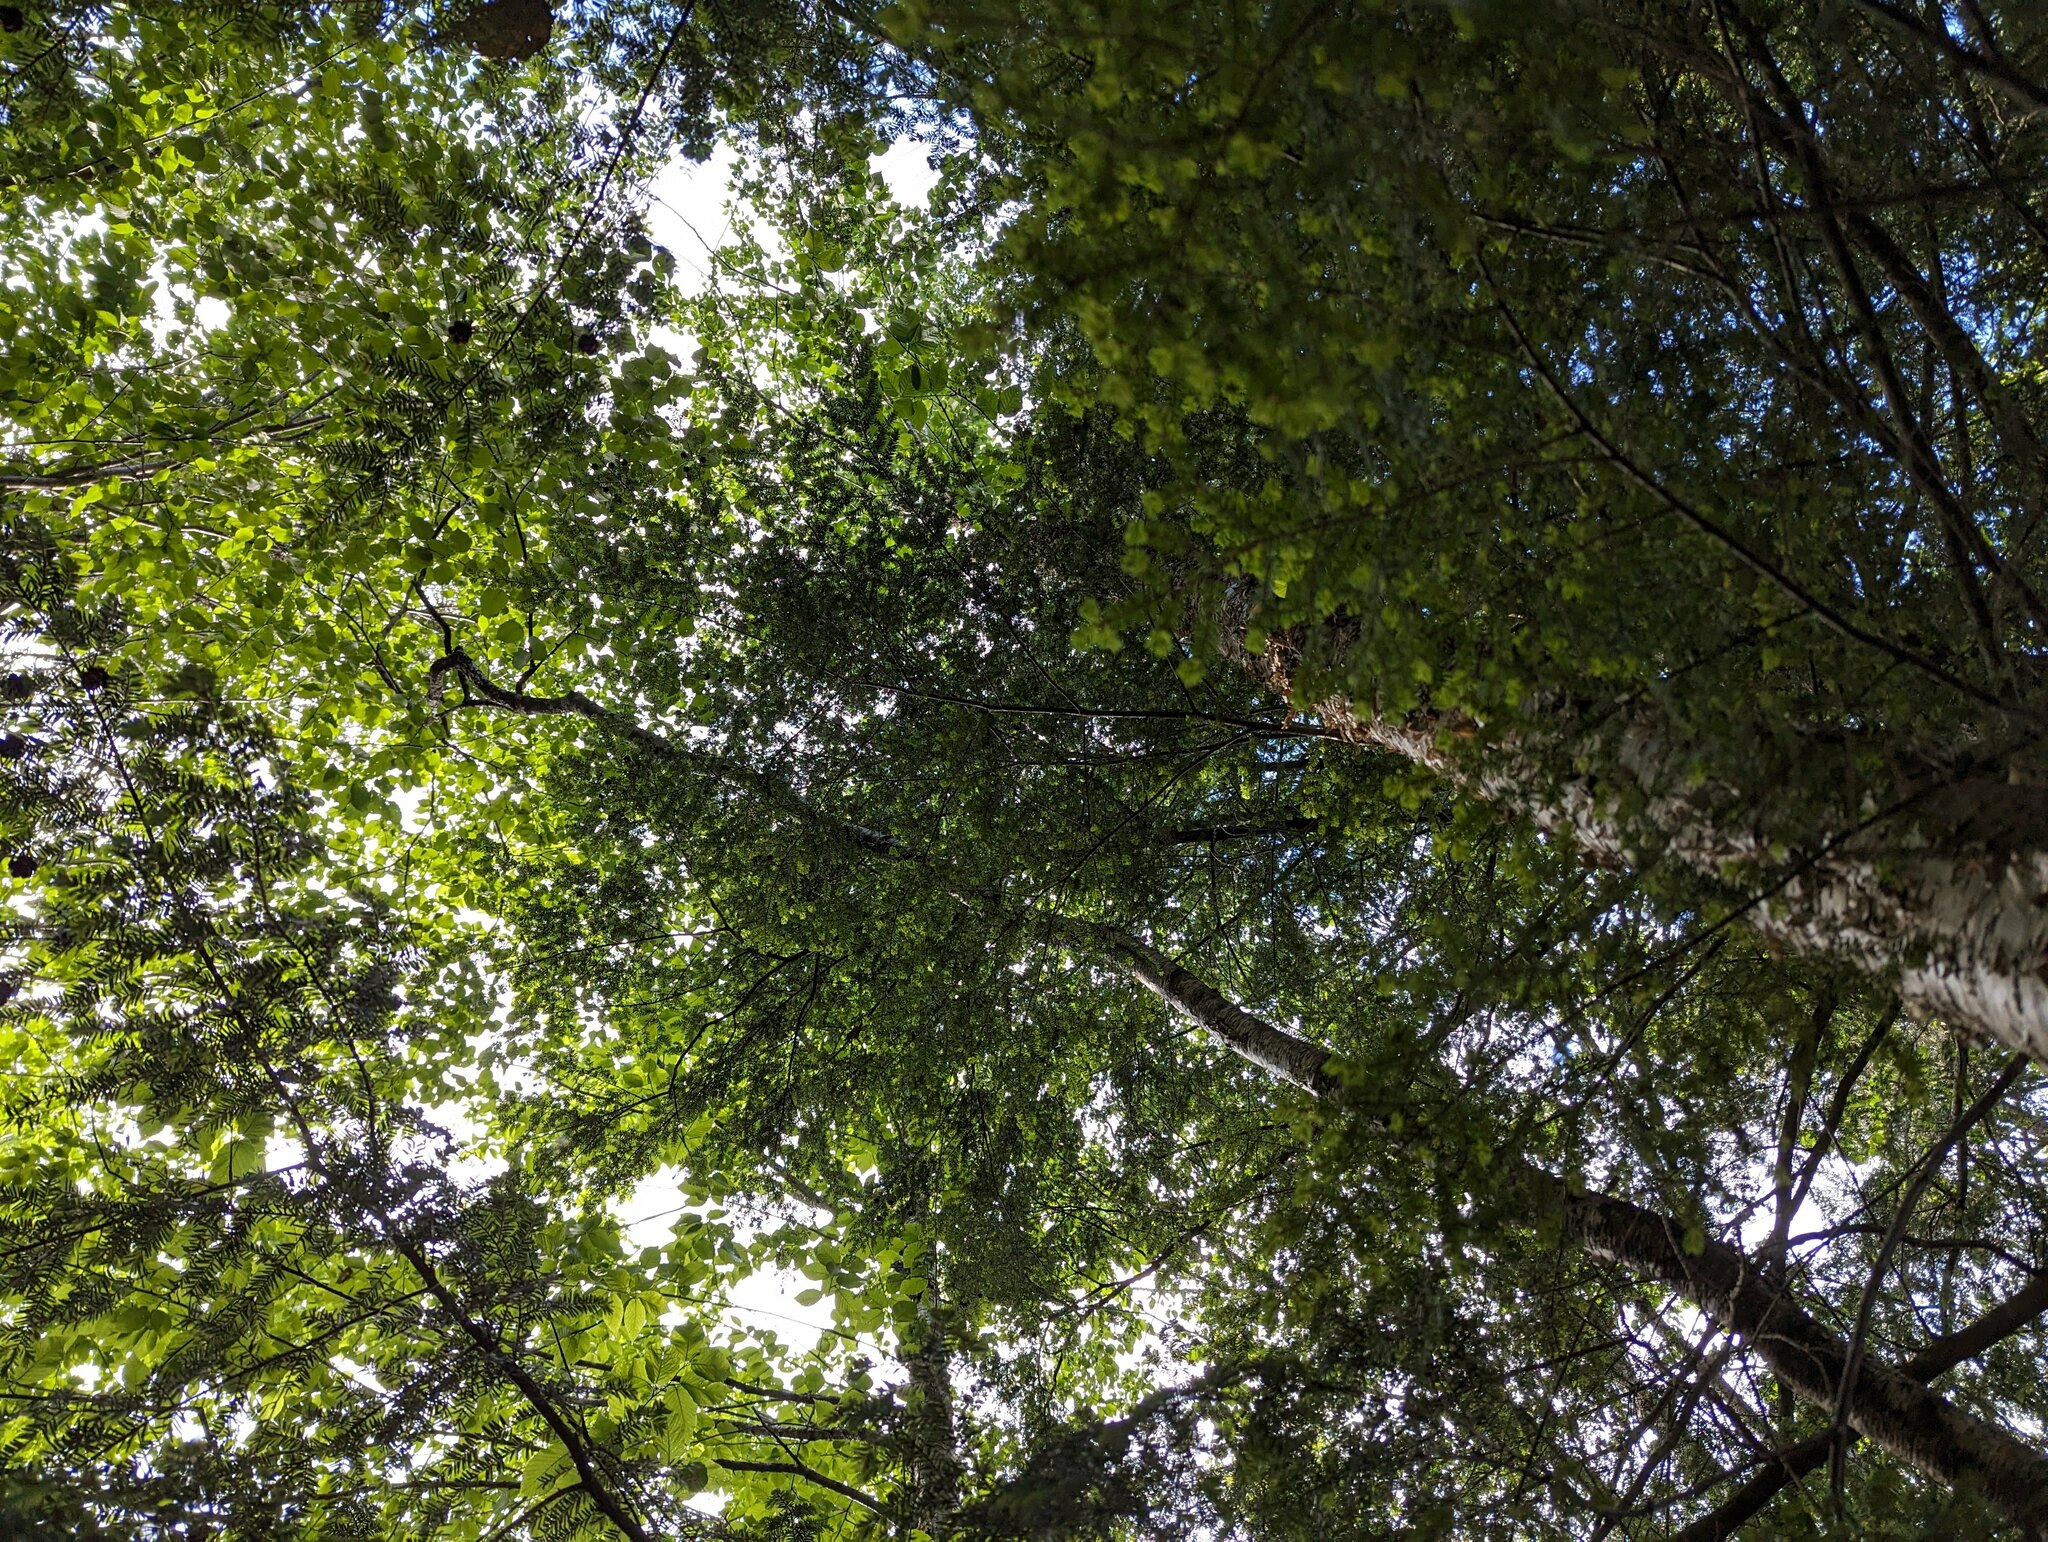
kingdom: Plantae
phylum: Tracheophyta
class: Magnoliopsida
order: Fagales
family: Betulaceae
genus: Betula
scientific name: Betula alleghaniensis
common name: Yellow birch
